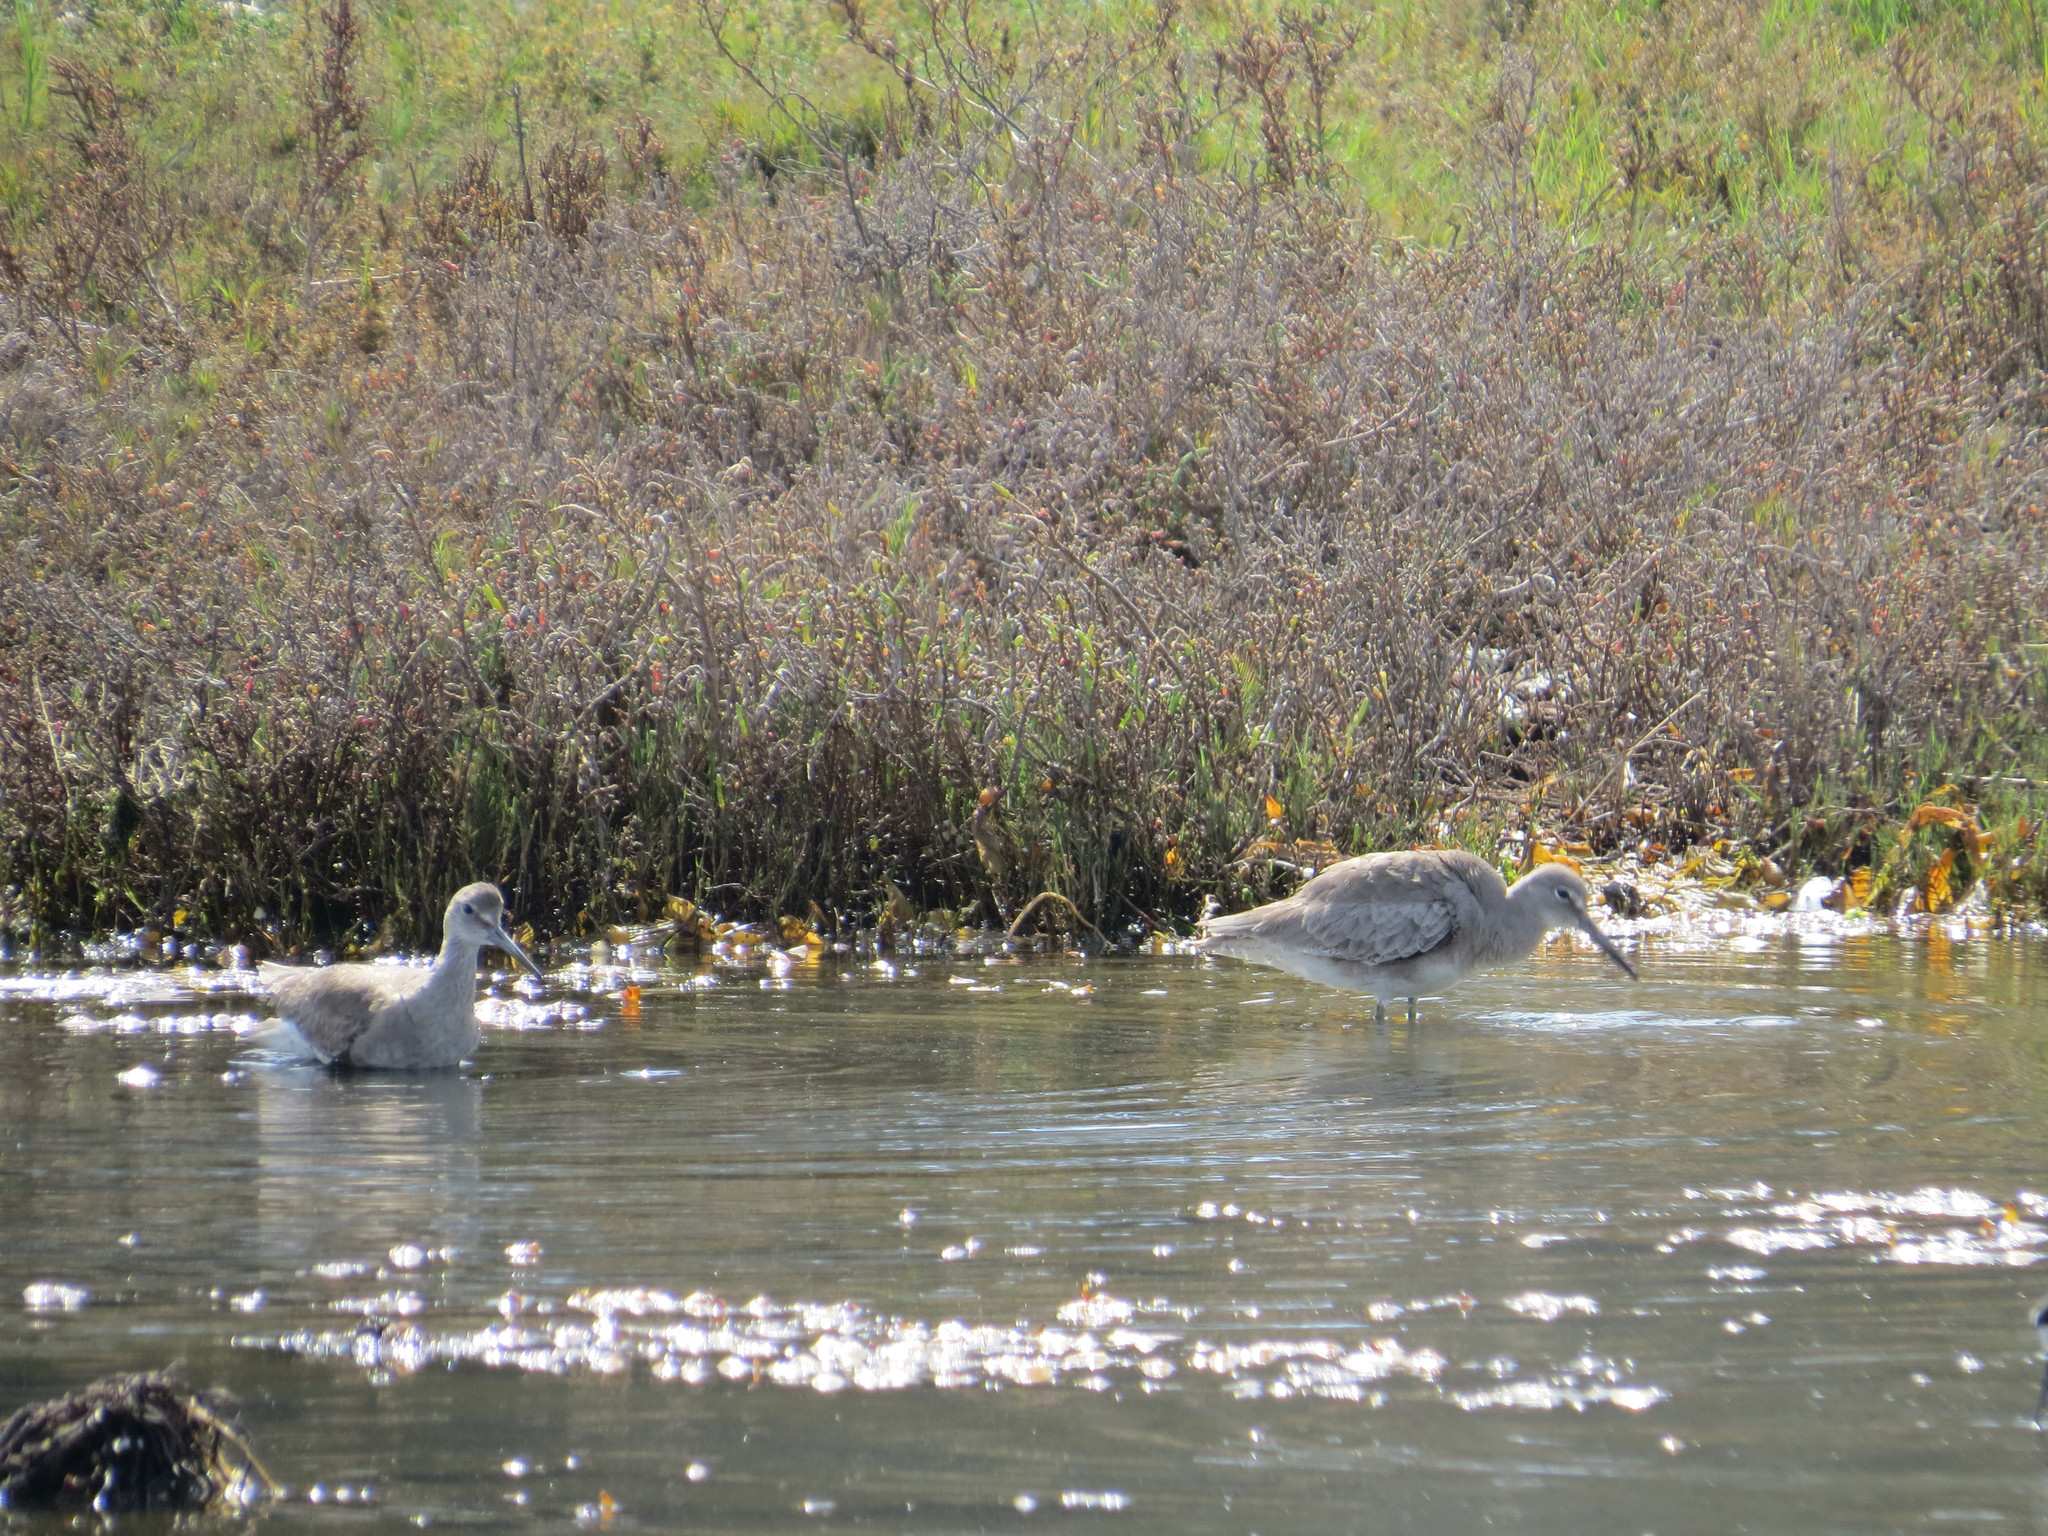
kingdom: Animalia
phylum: Chordata
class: Aves
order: Charadriiformes
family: Scolopacidae
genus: Tringa
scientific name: Tringa semipalmata
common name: Willet
